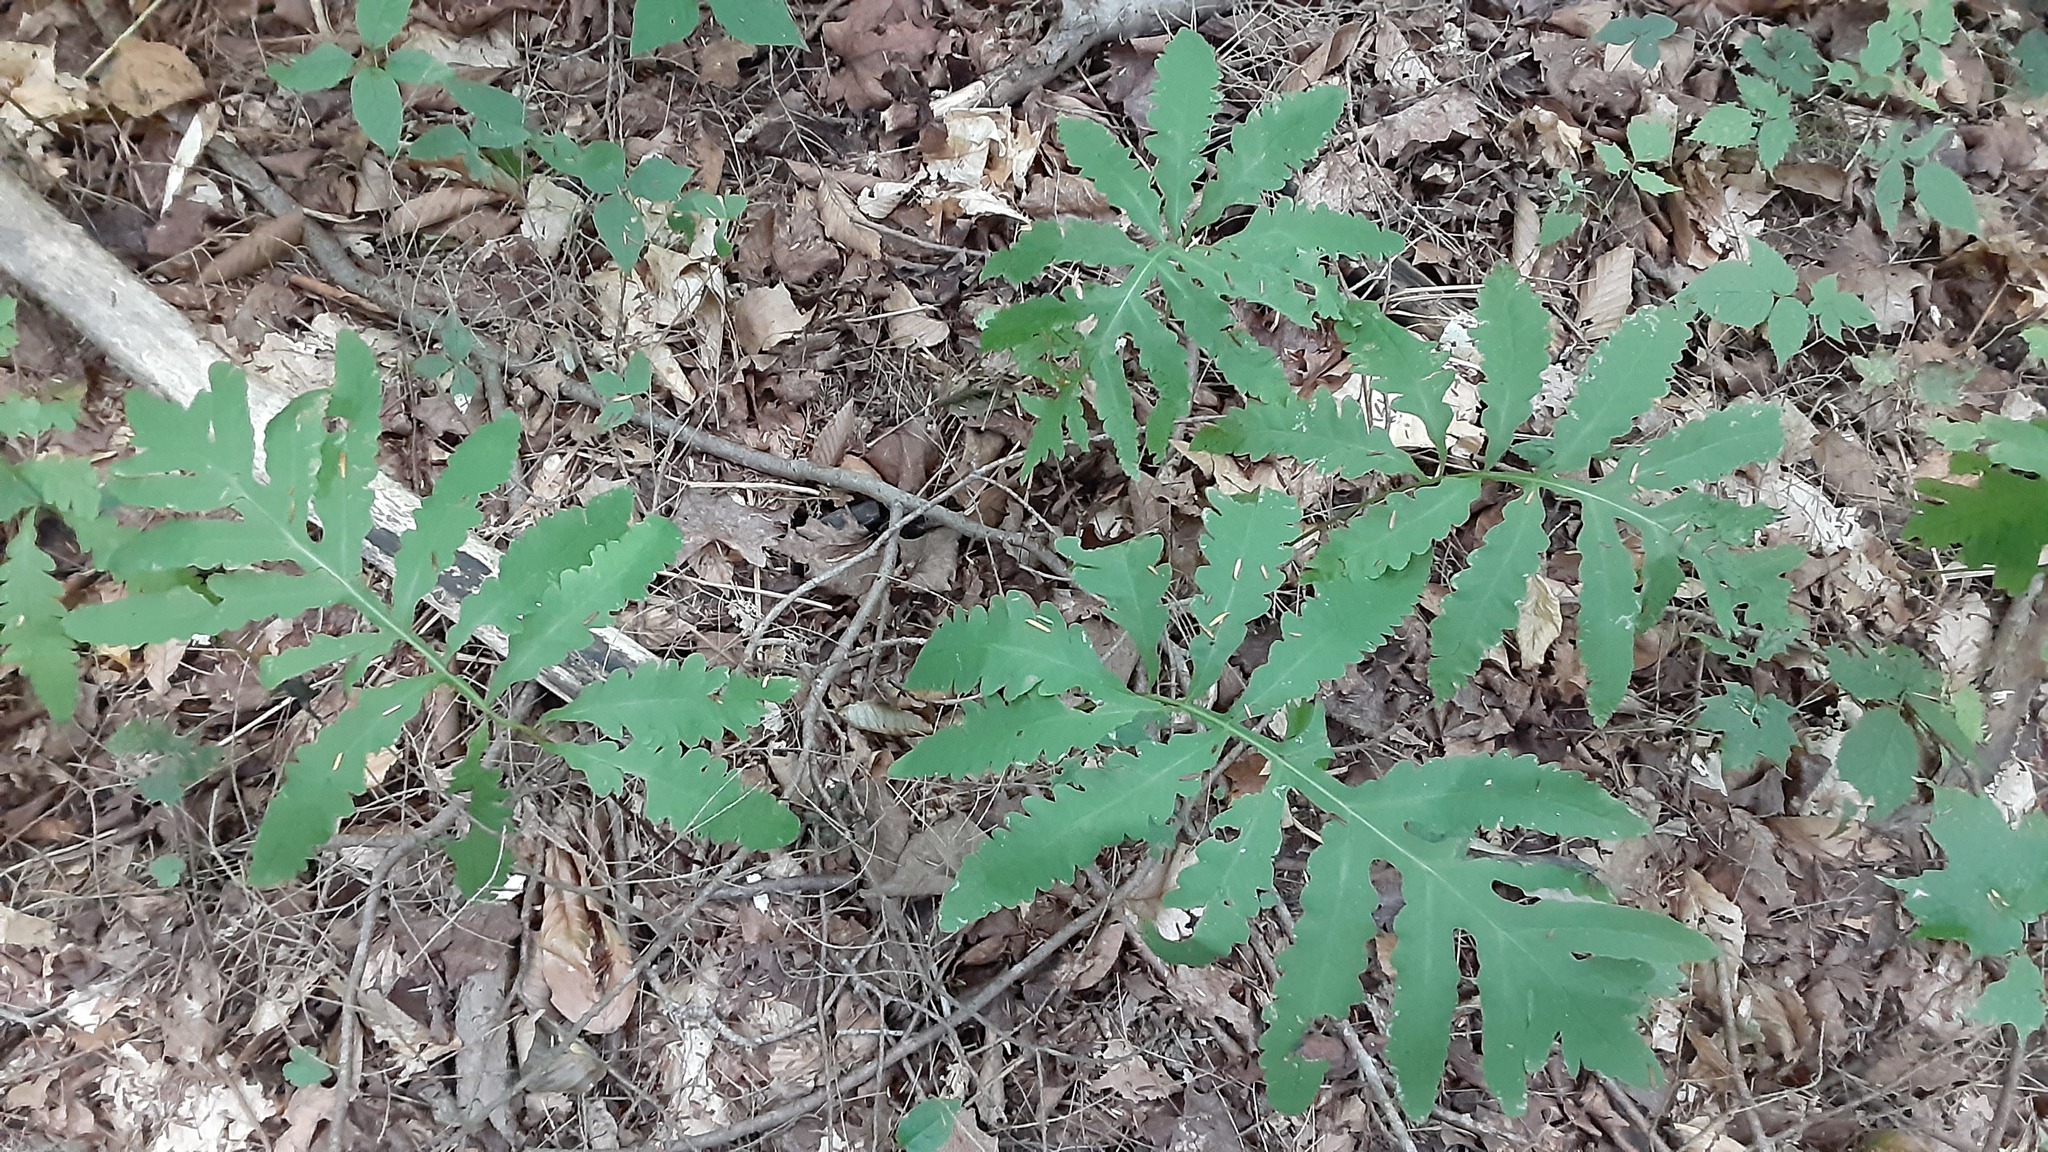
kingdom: Plantae
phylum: Tracheophyta
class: Polypodiopsida
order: Polypodiales
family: Onocleaceae
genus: Onoclea
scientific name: Onoclea sensibilis
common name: Sensitive fern
